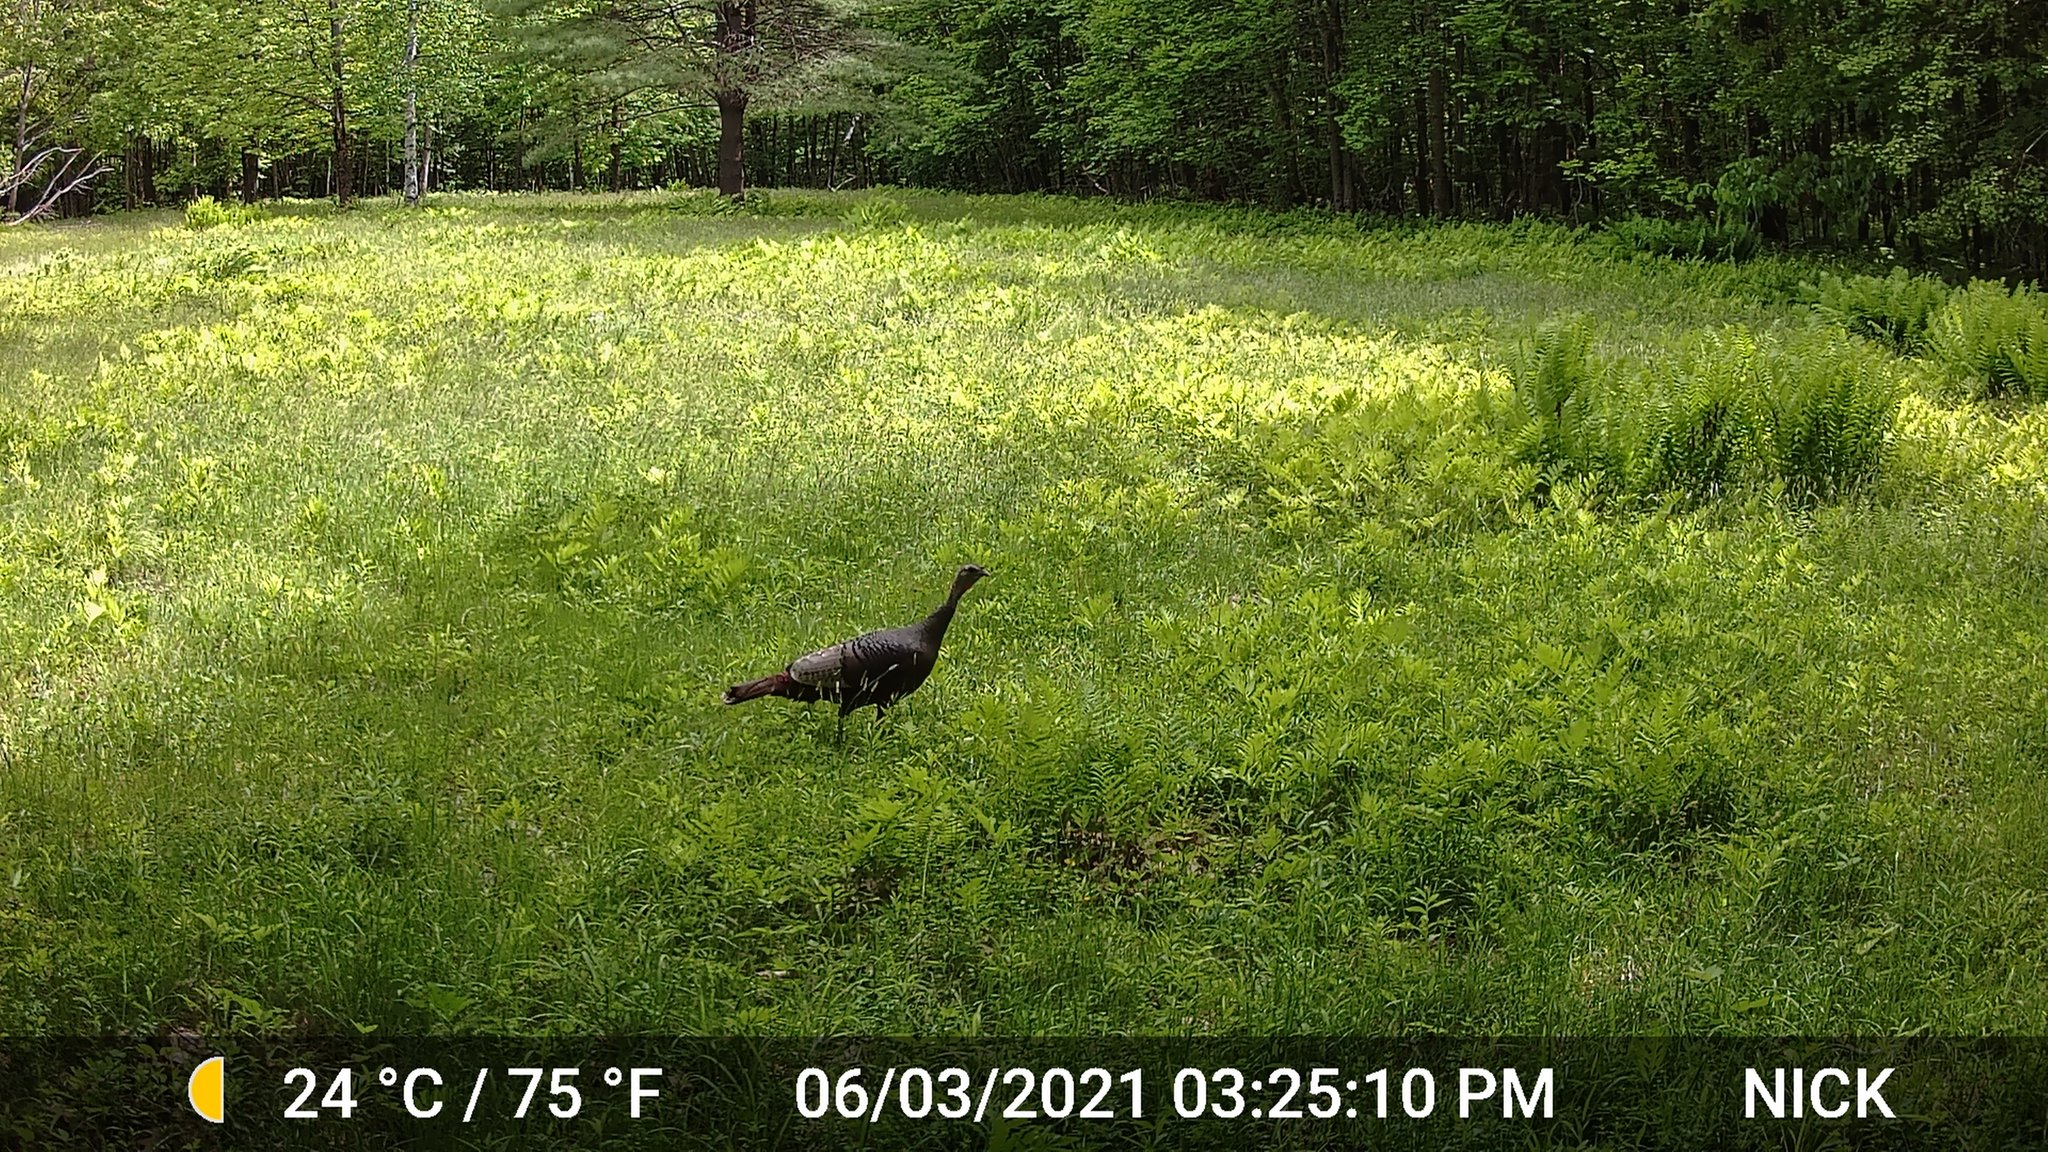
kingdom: Animalia
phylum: Chordata
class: Aves
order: Galliformes
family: Phasianidae
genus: Meleagris
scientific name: Meleagris gallopavo
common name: Wild turkey
